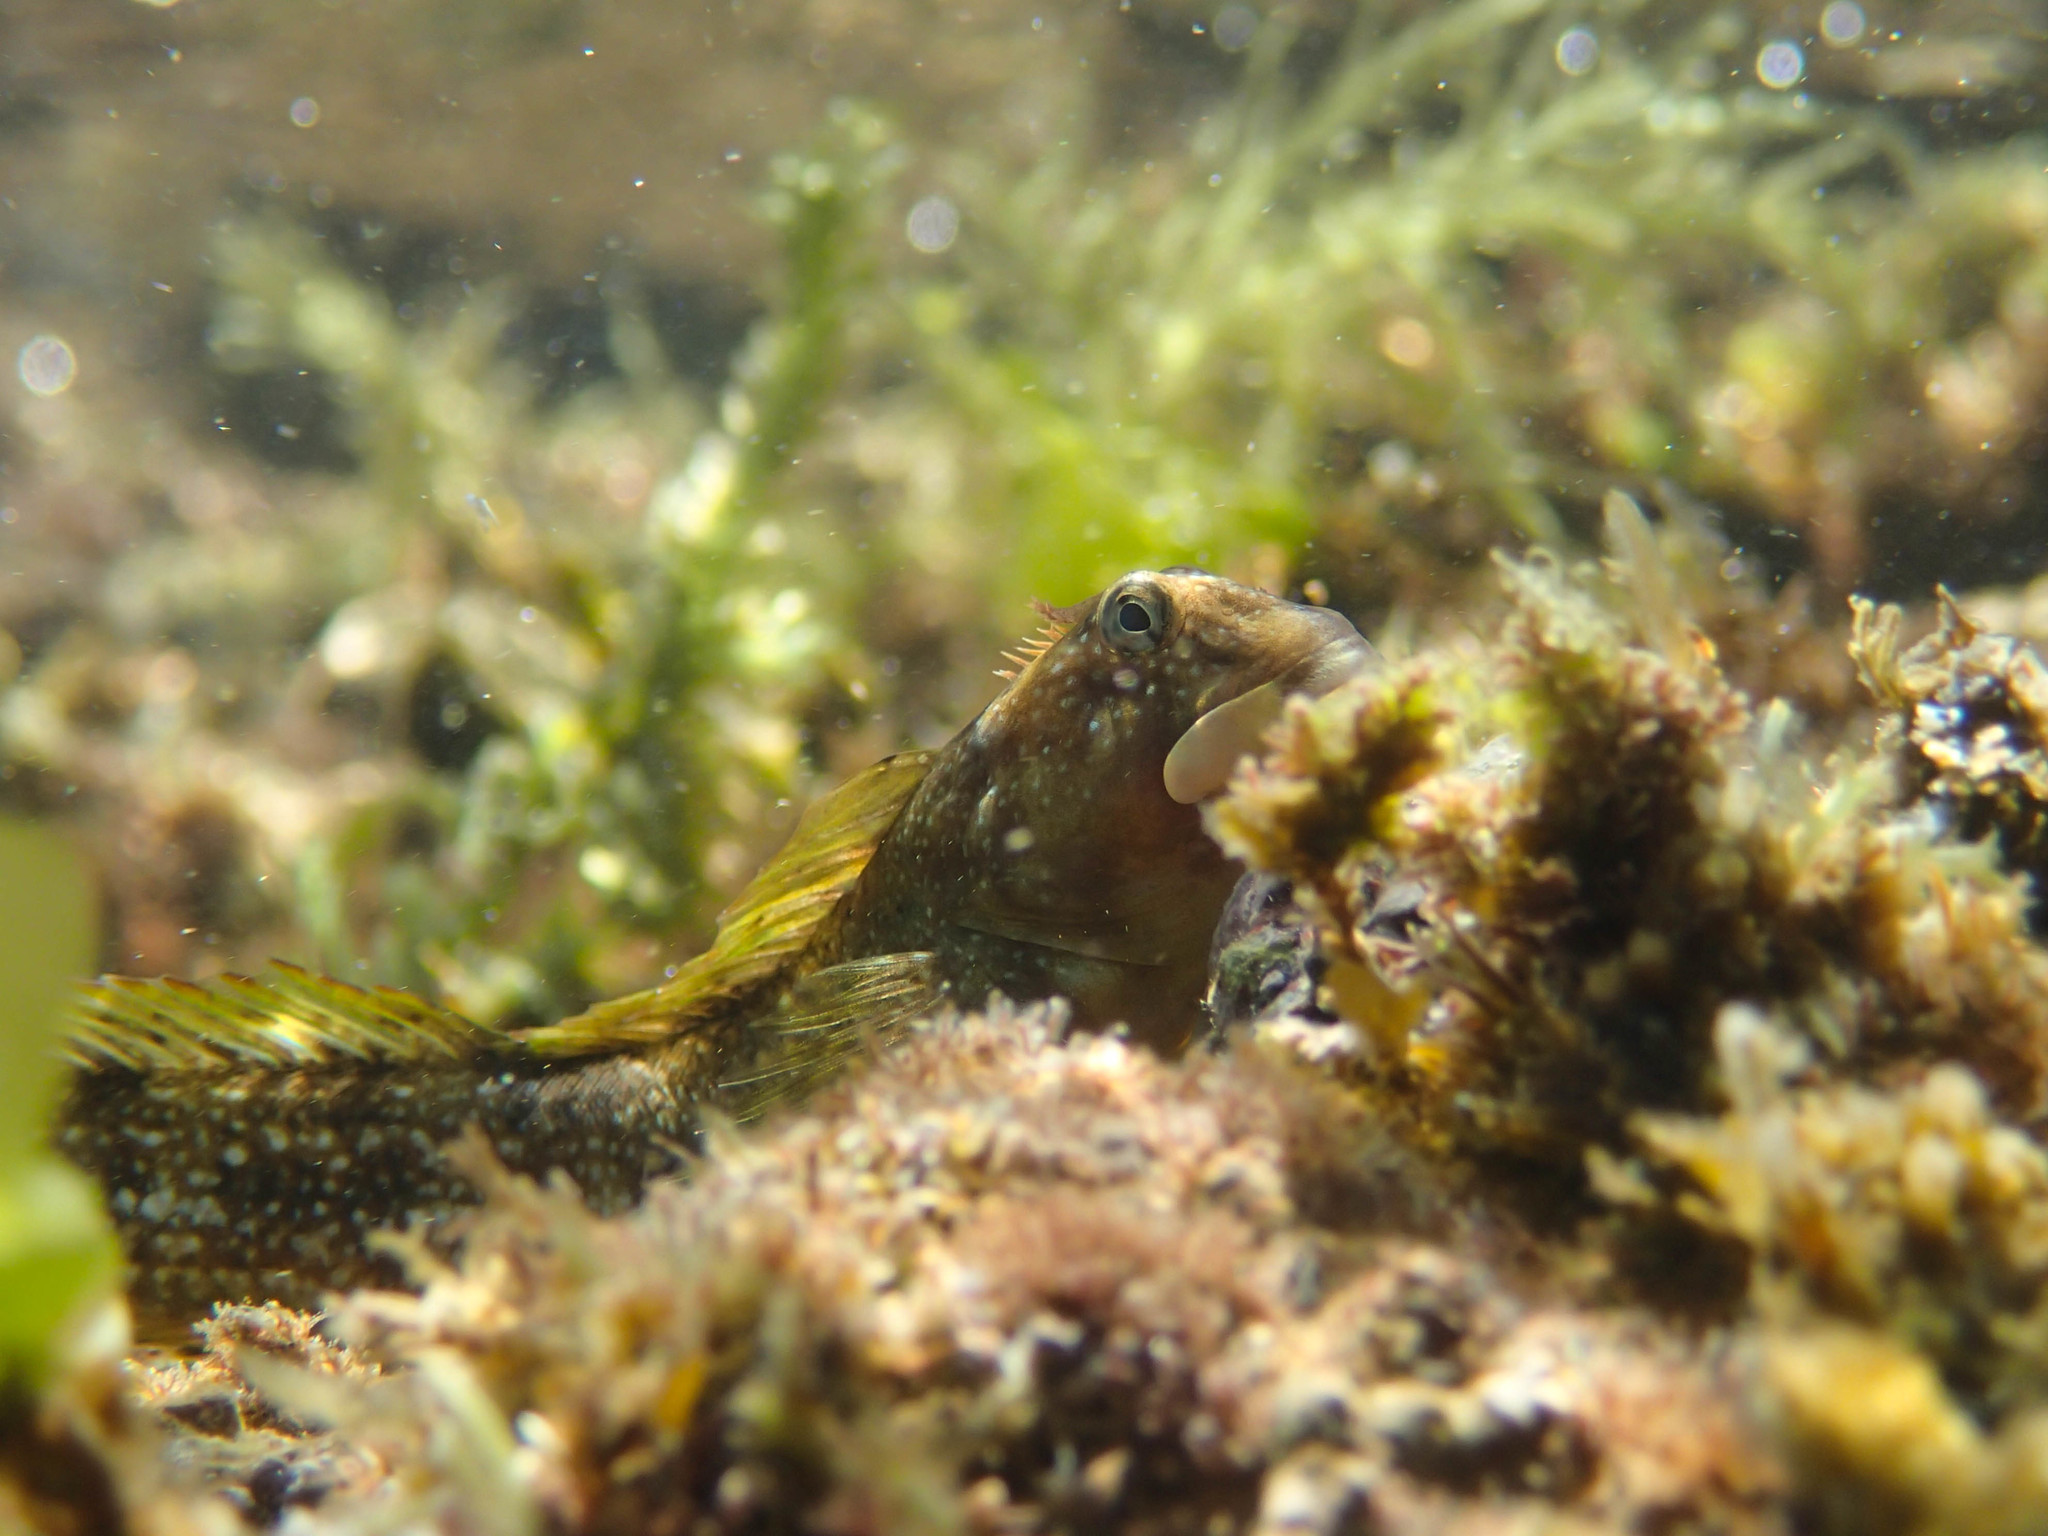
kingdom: Animalia
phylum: Chordata
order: Perciformes
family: Blenniidae
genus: Coryphoblennius
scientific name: Coryphoblennius galerita
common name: Montagu's blenny
